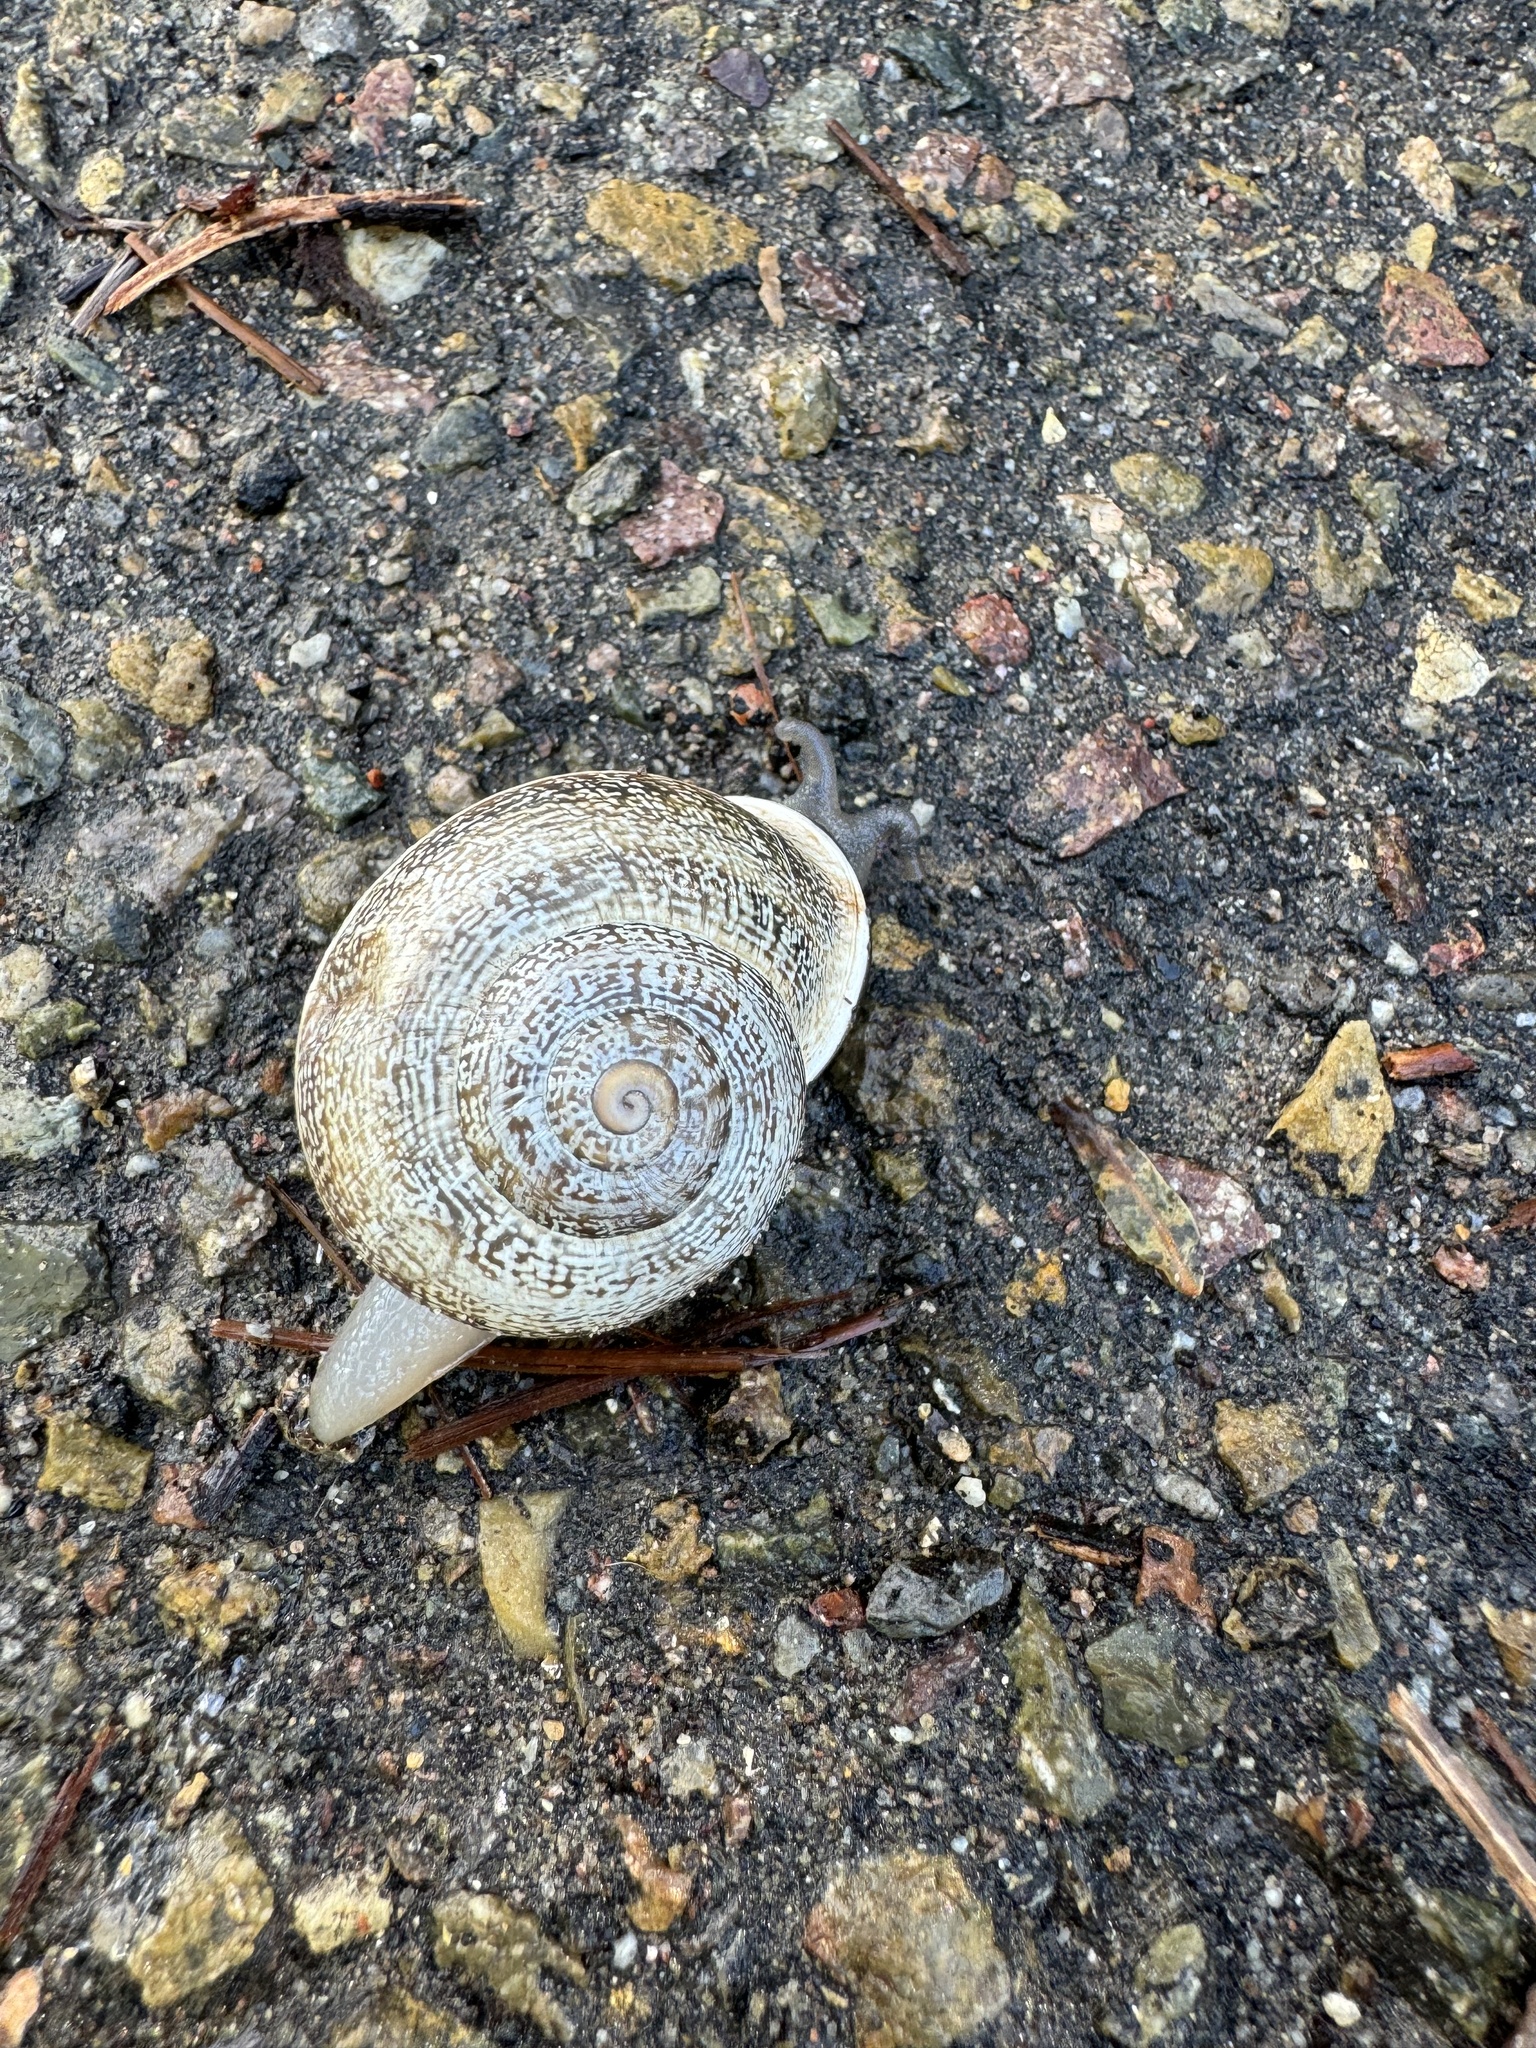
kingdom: Animalia
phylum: Mollusca
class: Gastropoda
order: Stylommatophora
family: Helicidae
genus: Otala
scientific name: Otala lactea
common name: Milk snail
